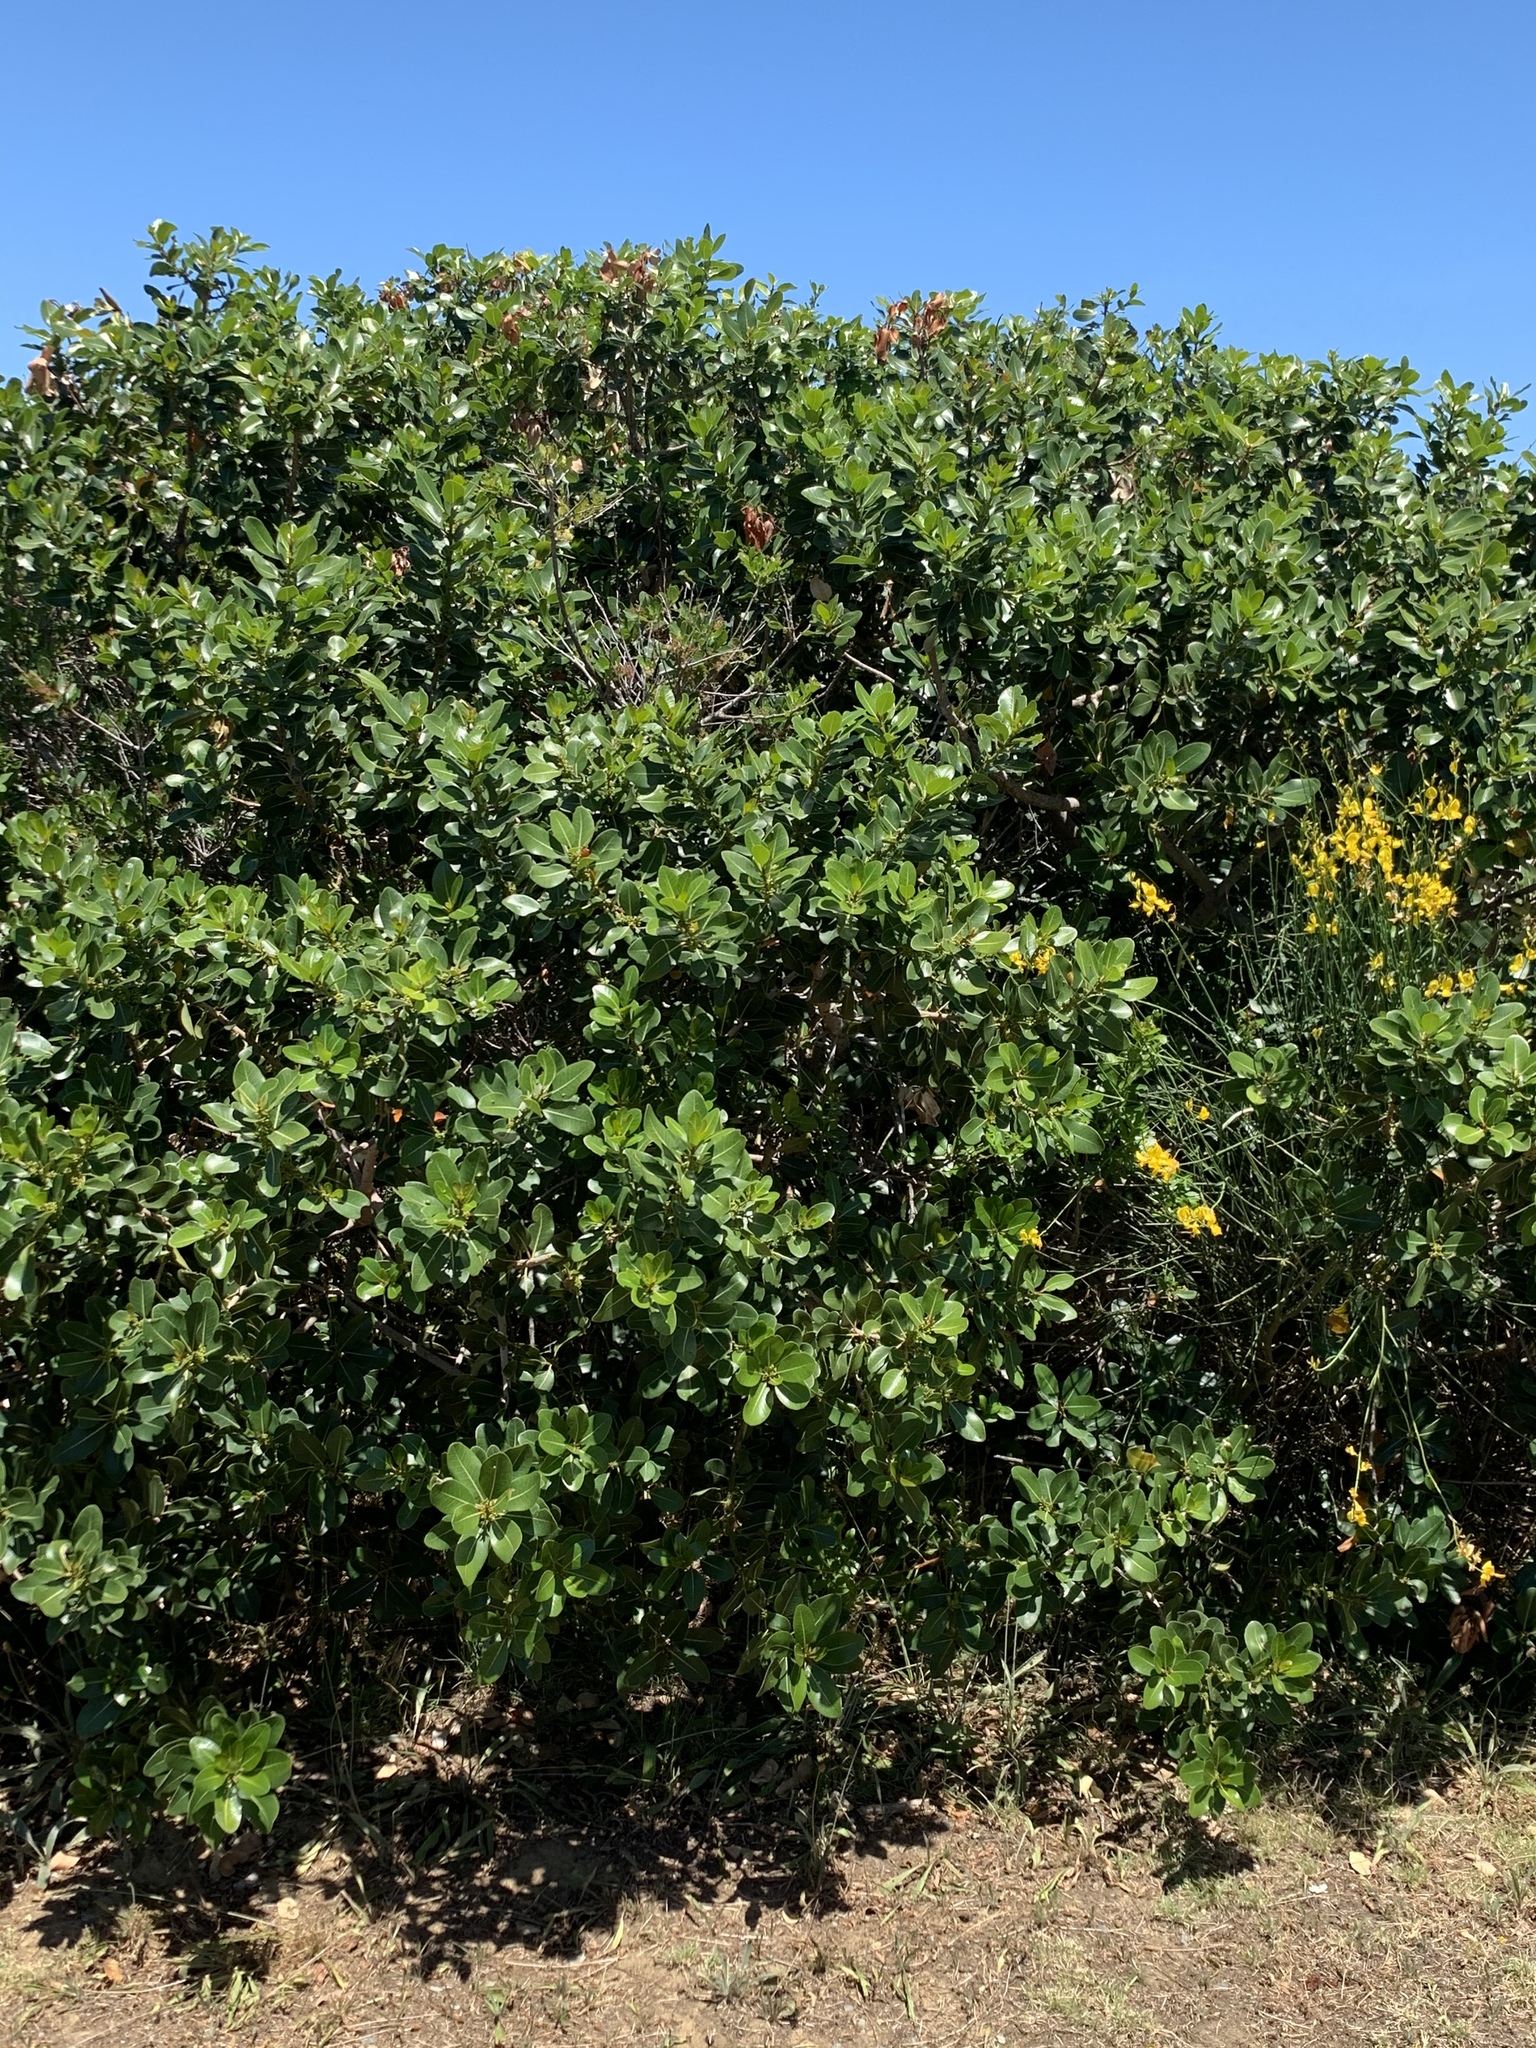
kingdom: Plantae
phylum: Tracheophyta
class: Magnoliopsida
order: Ericales
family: Sapotaceae
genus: Sideroxylon
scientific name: Sideroxylon inerme
